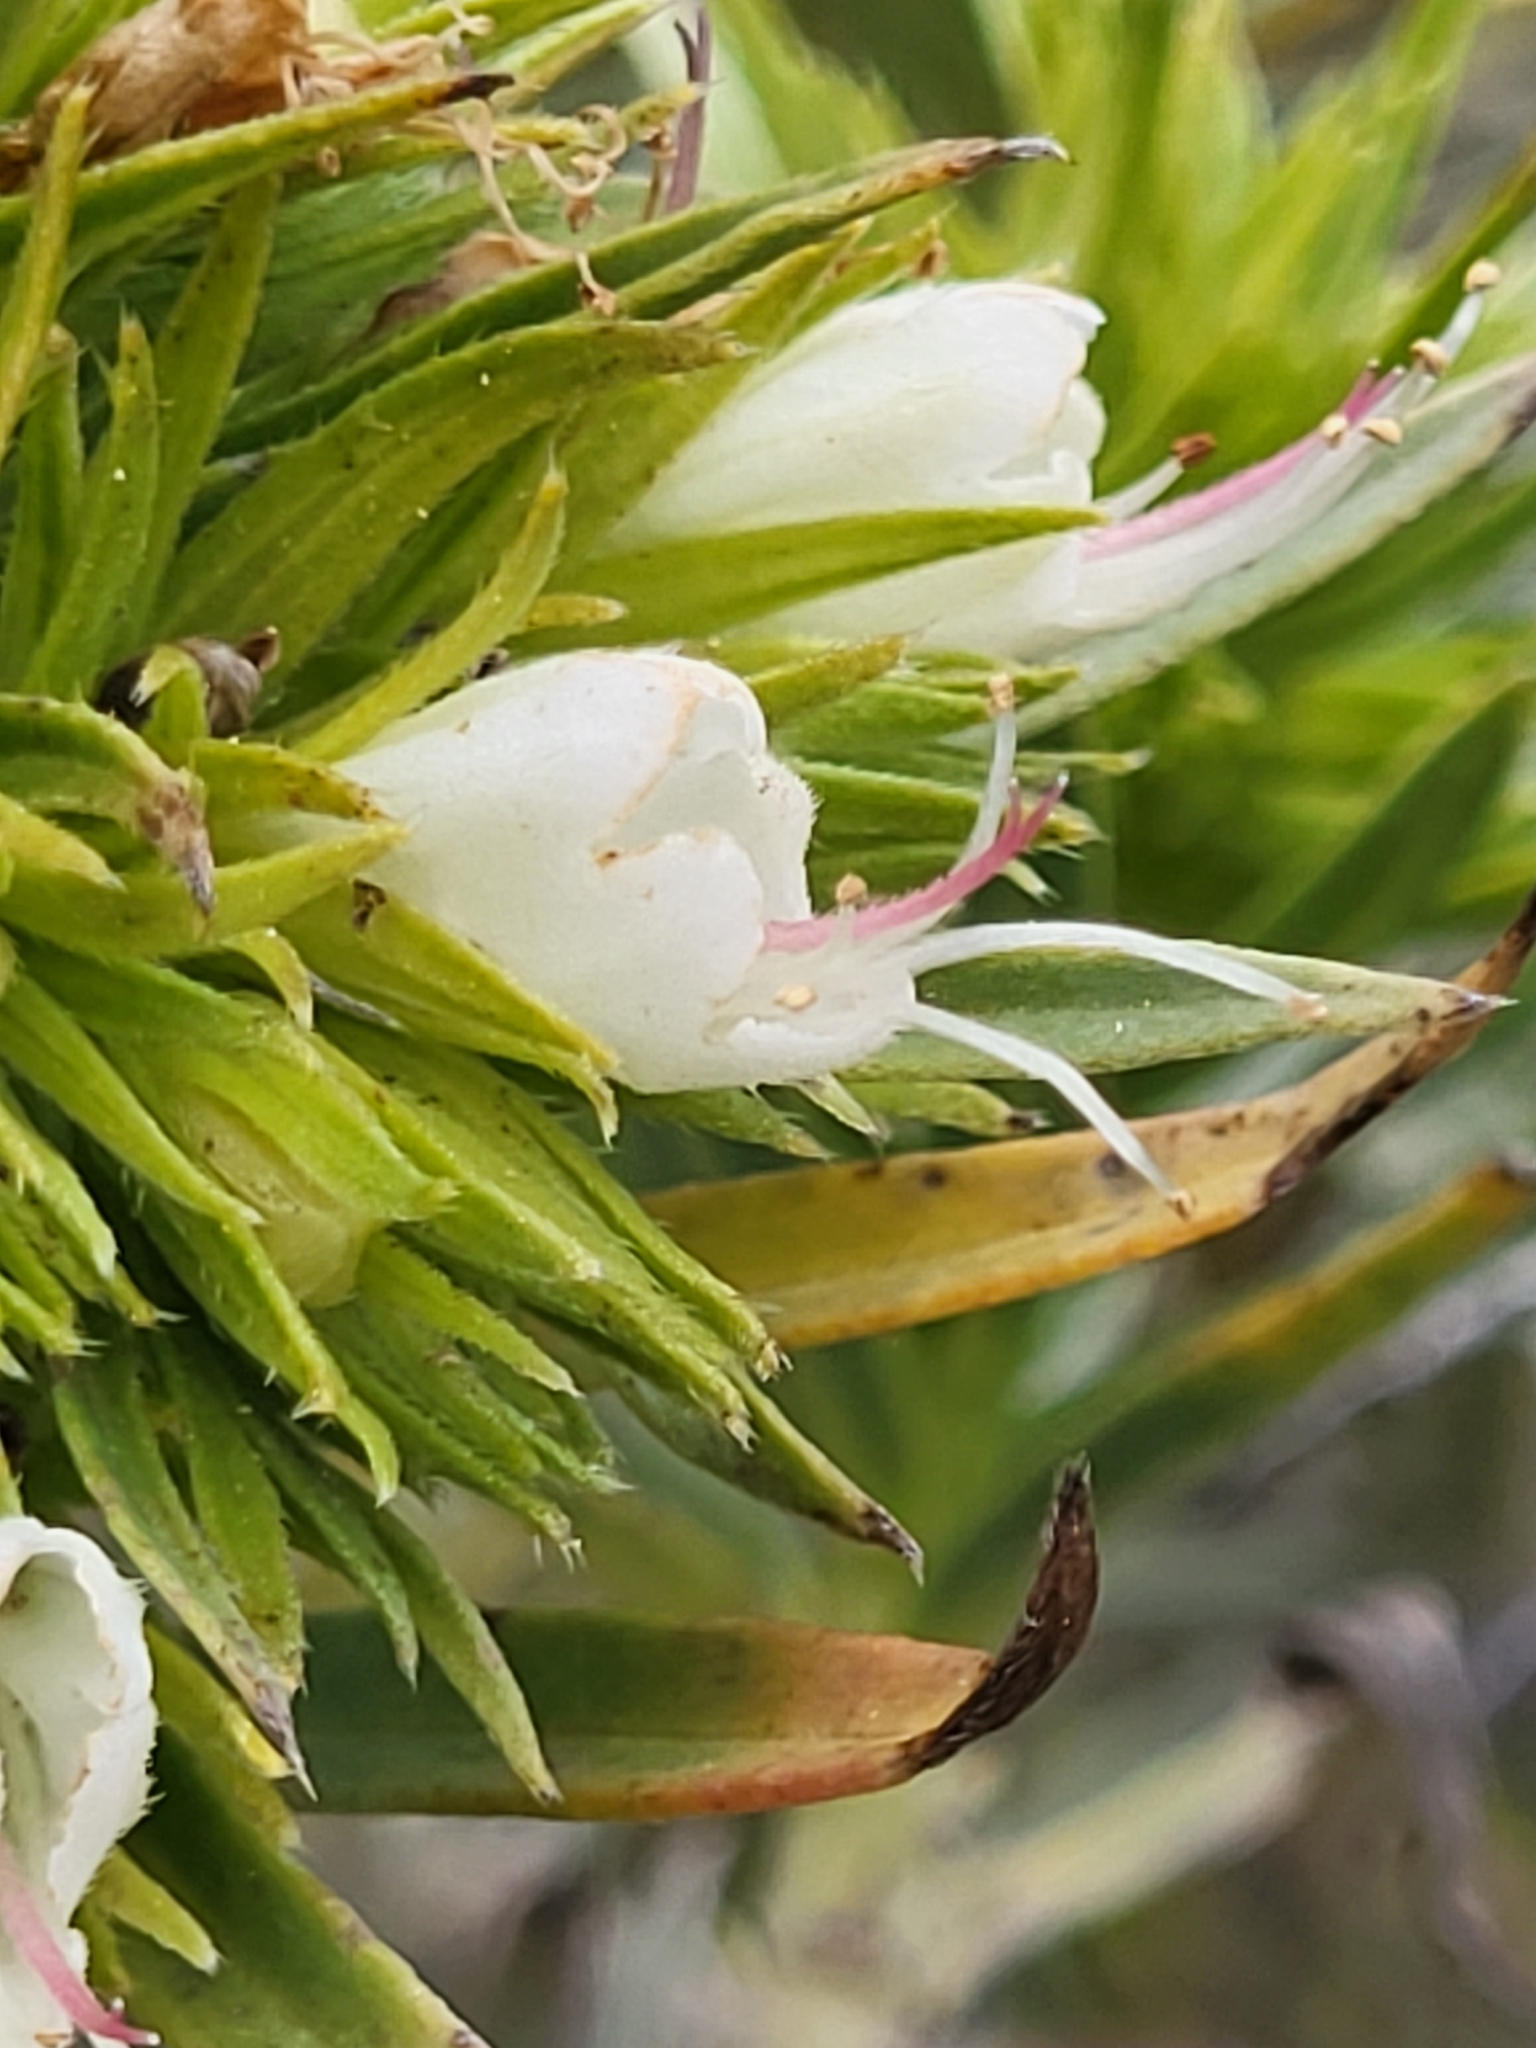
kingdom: Plantae
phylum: Tracheophyta
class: Magnoliopsida
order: Boraginales
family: Boraginaceae
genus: Echium
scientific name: Echium aculeatum
